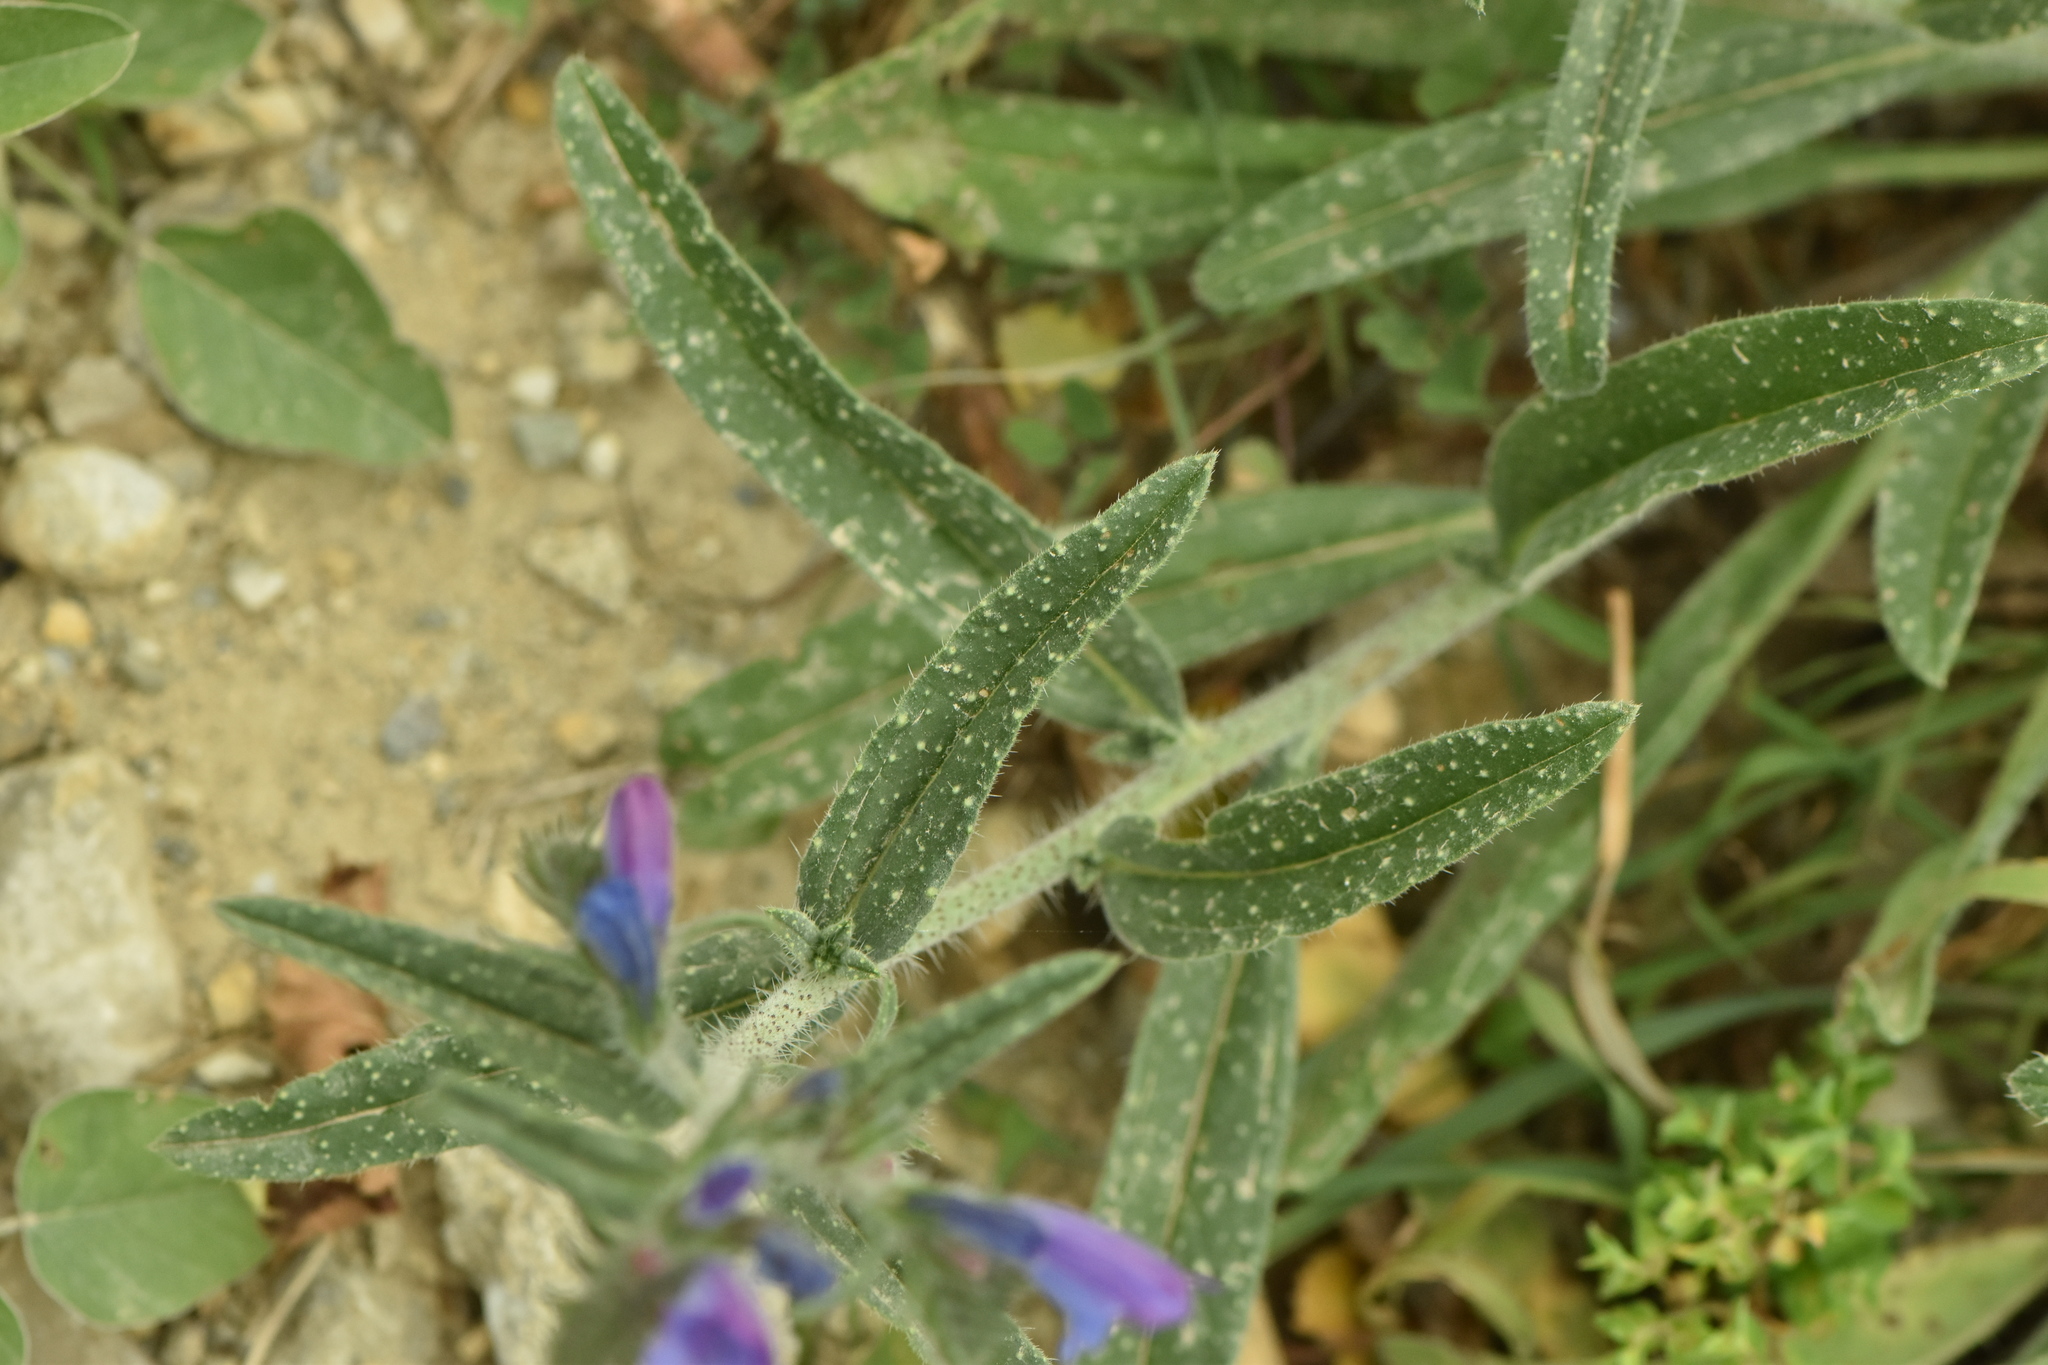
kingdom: Plantae
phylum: Tracheophyta
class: Magnoliopsida
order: Boraginales
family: Boraginaceae
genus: Echium
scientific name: Echium creticum
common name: Cretan viper's bugloss
